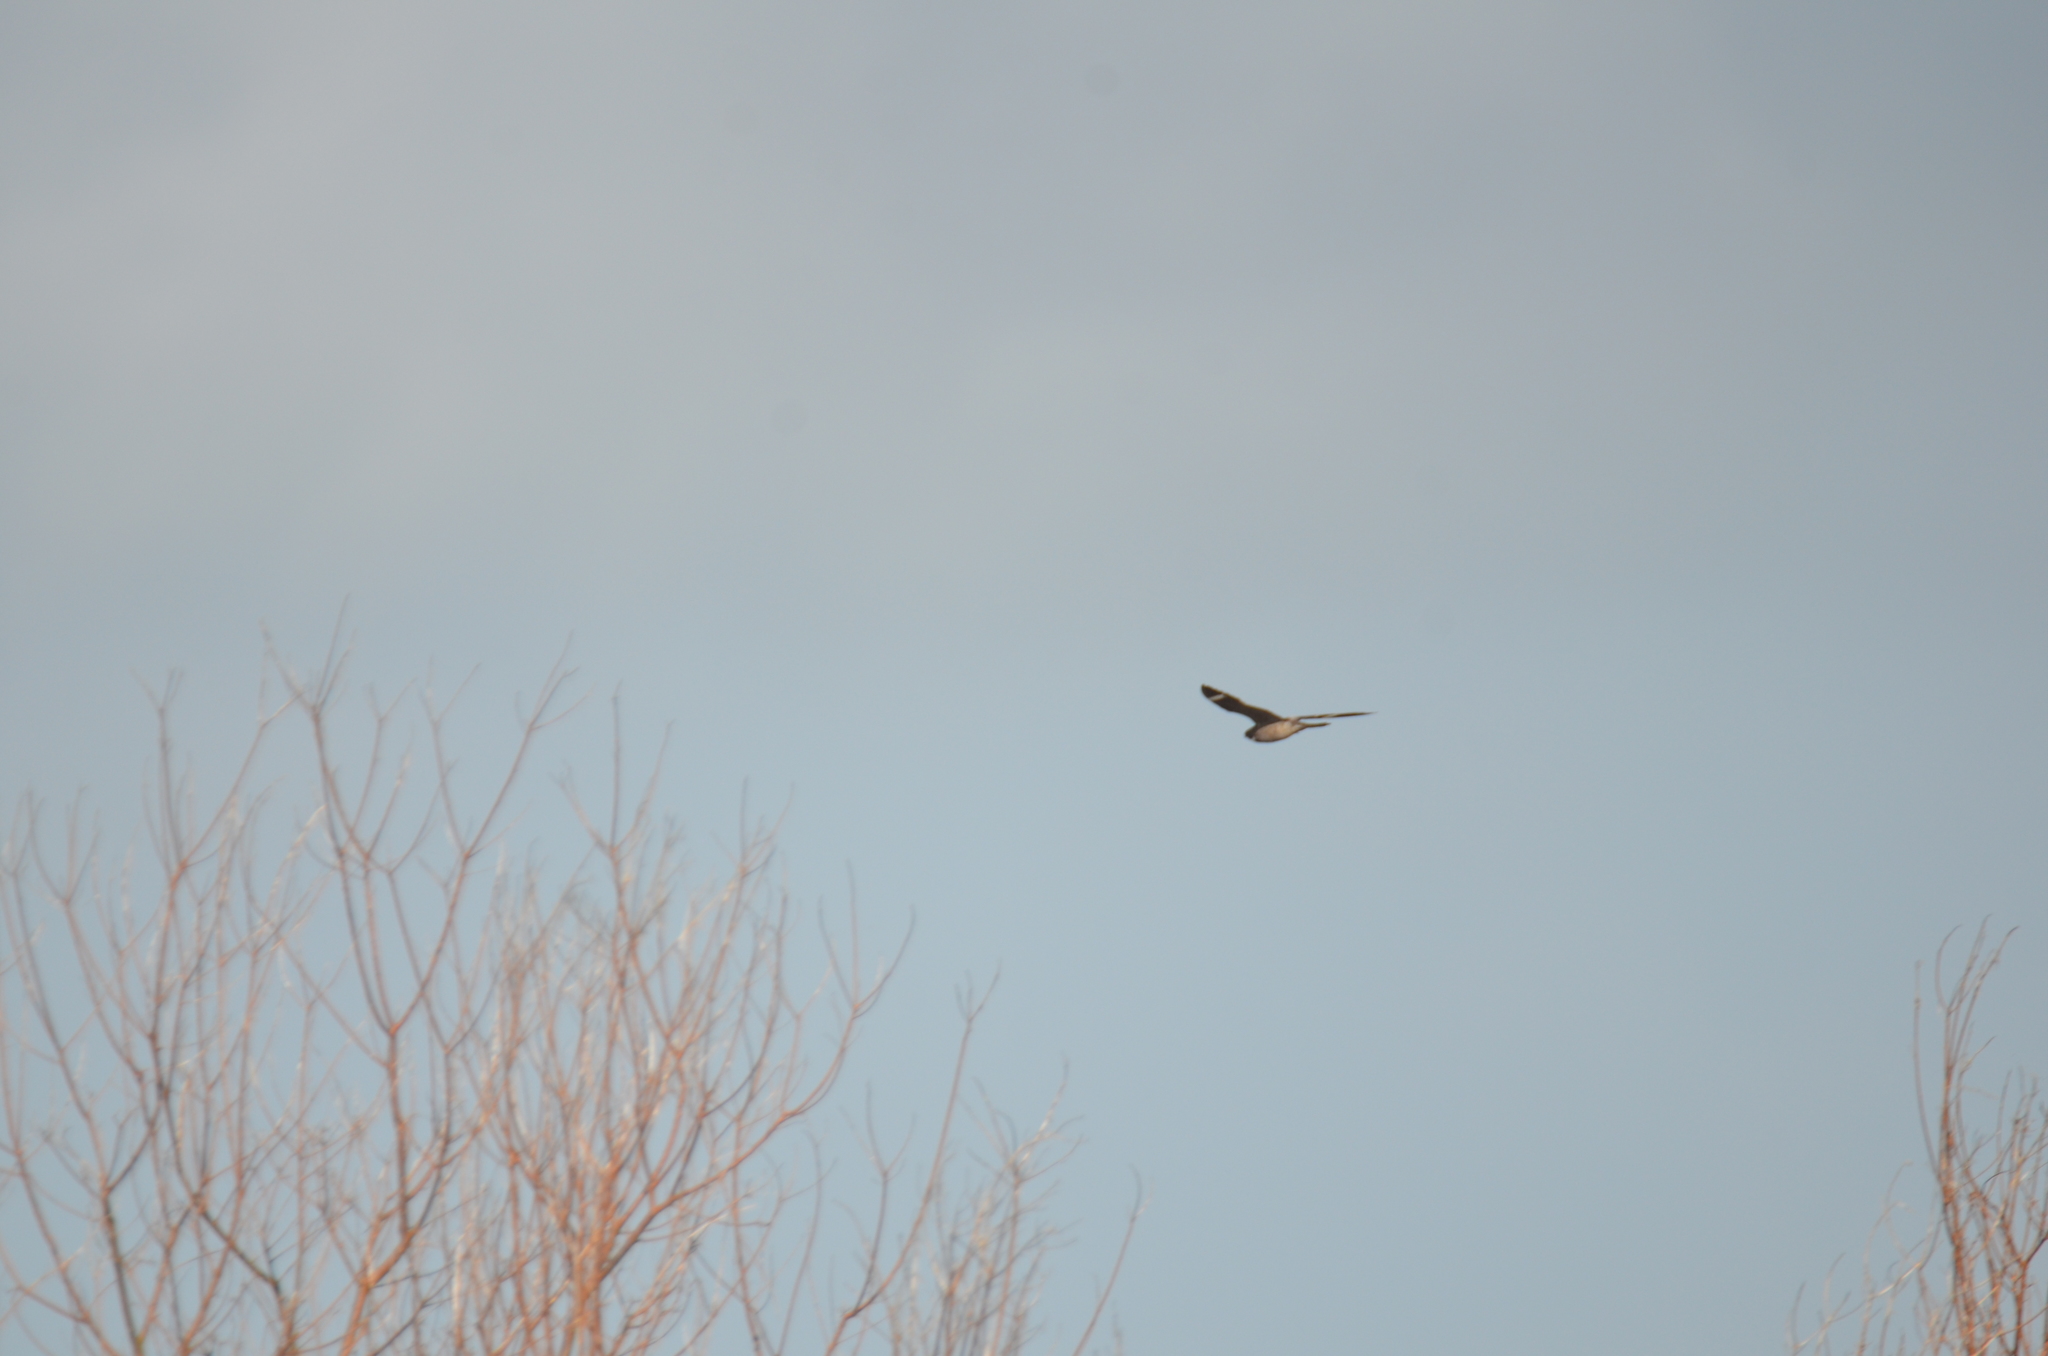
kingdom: Animalia
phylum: Chordata
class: Aves
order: Caprimulgiformes
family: Caprimulgidae
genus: Chordeiles
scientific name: Chordeiles minor
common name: Common nighthawk
